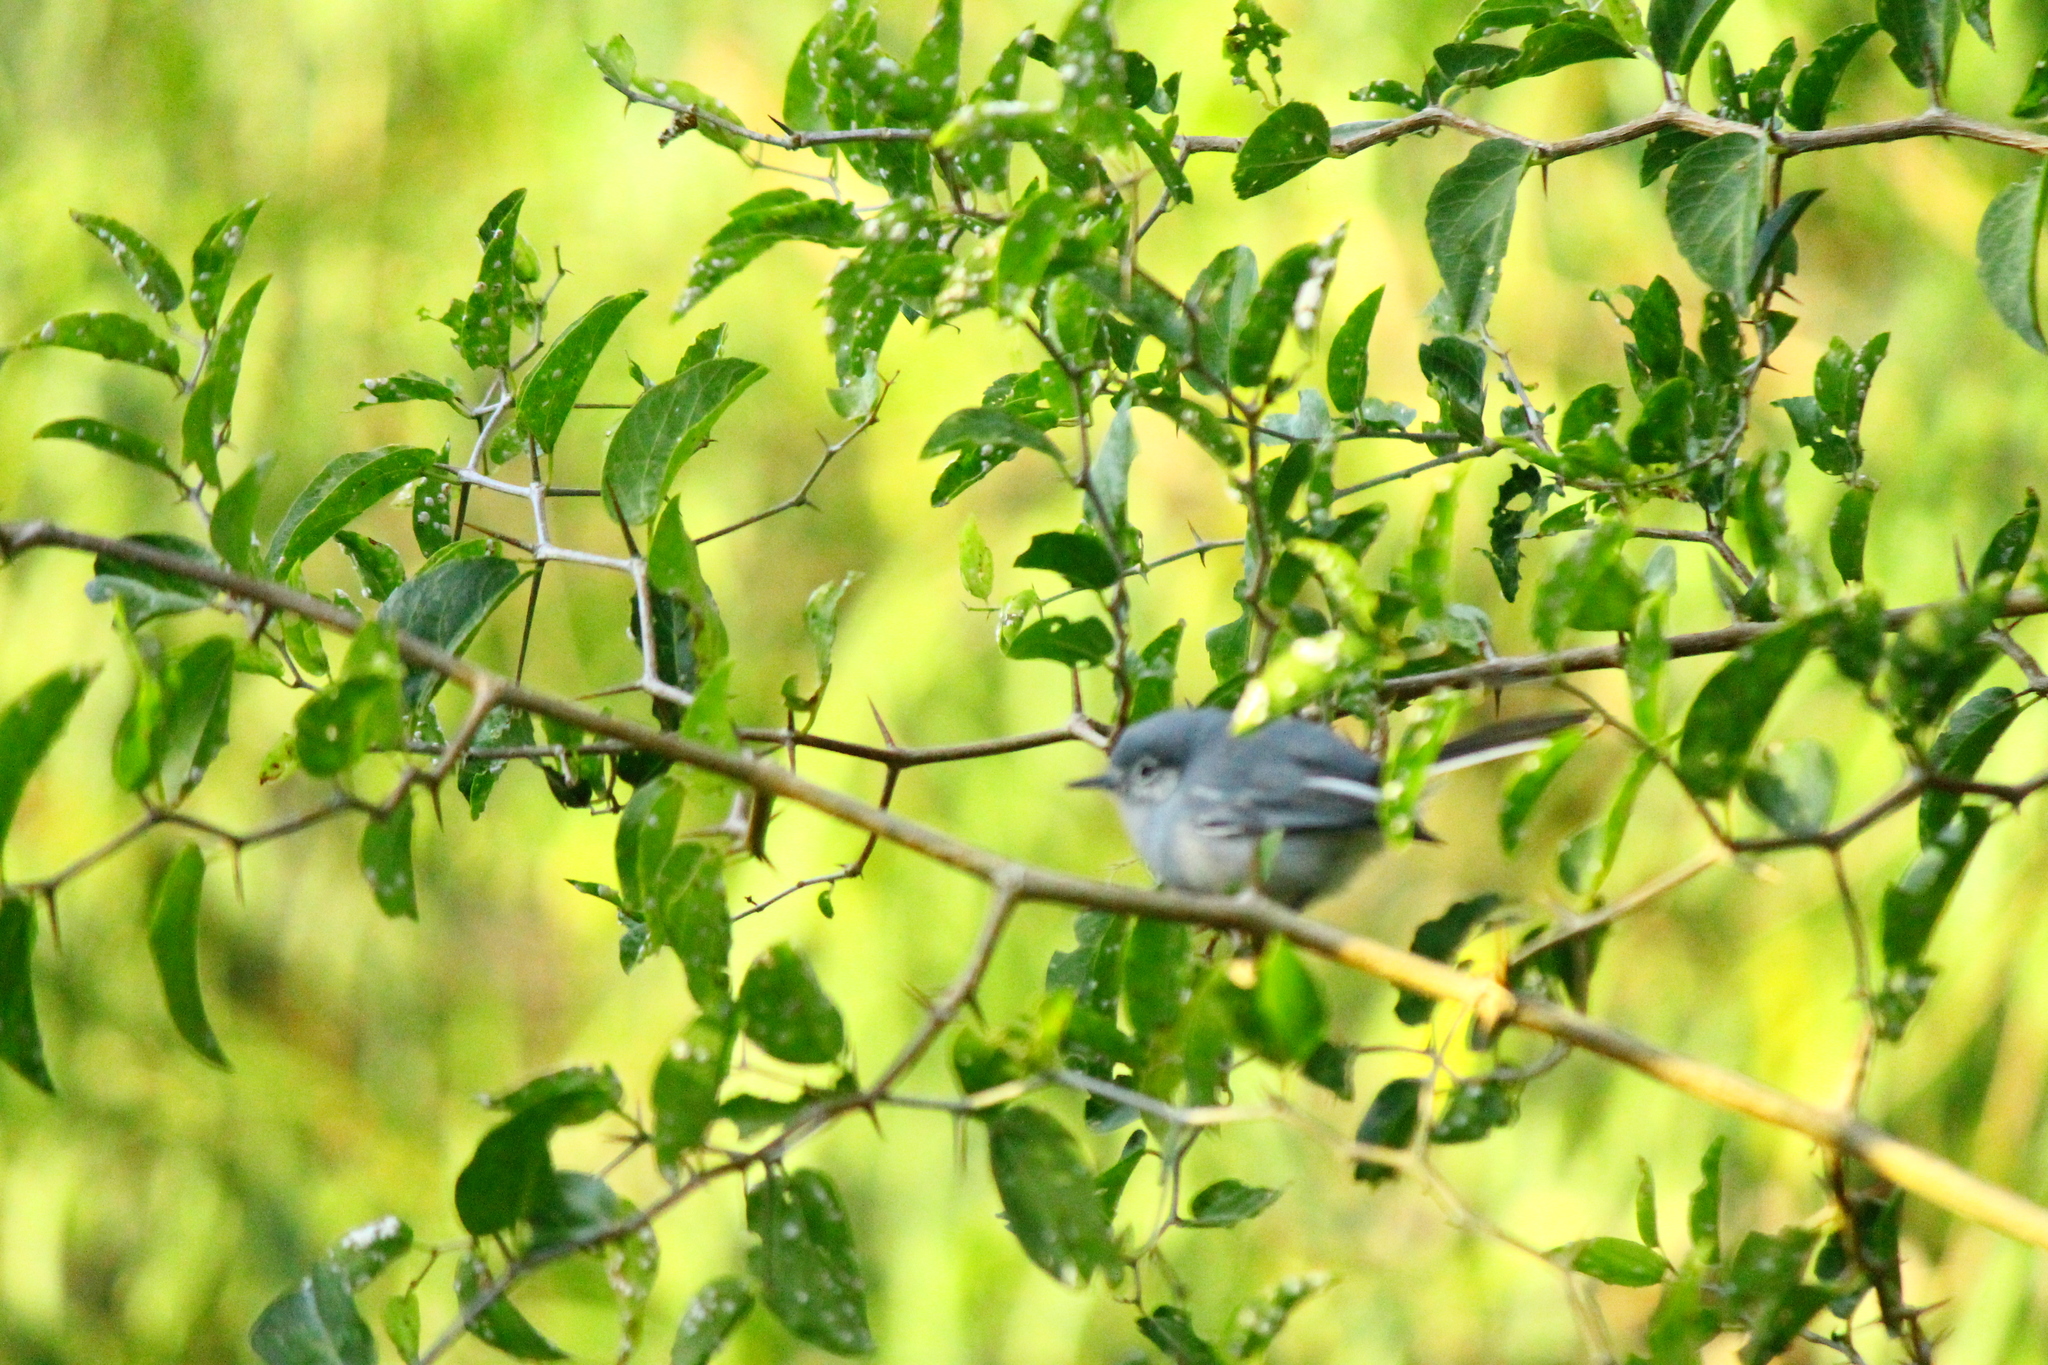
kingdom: Animalia
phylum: Chordata
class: Aves
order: Passeriformes
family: Polioptilidae
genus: Polioptila
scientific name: Polioptila dumicola
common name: Masked gnatcatcher
